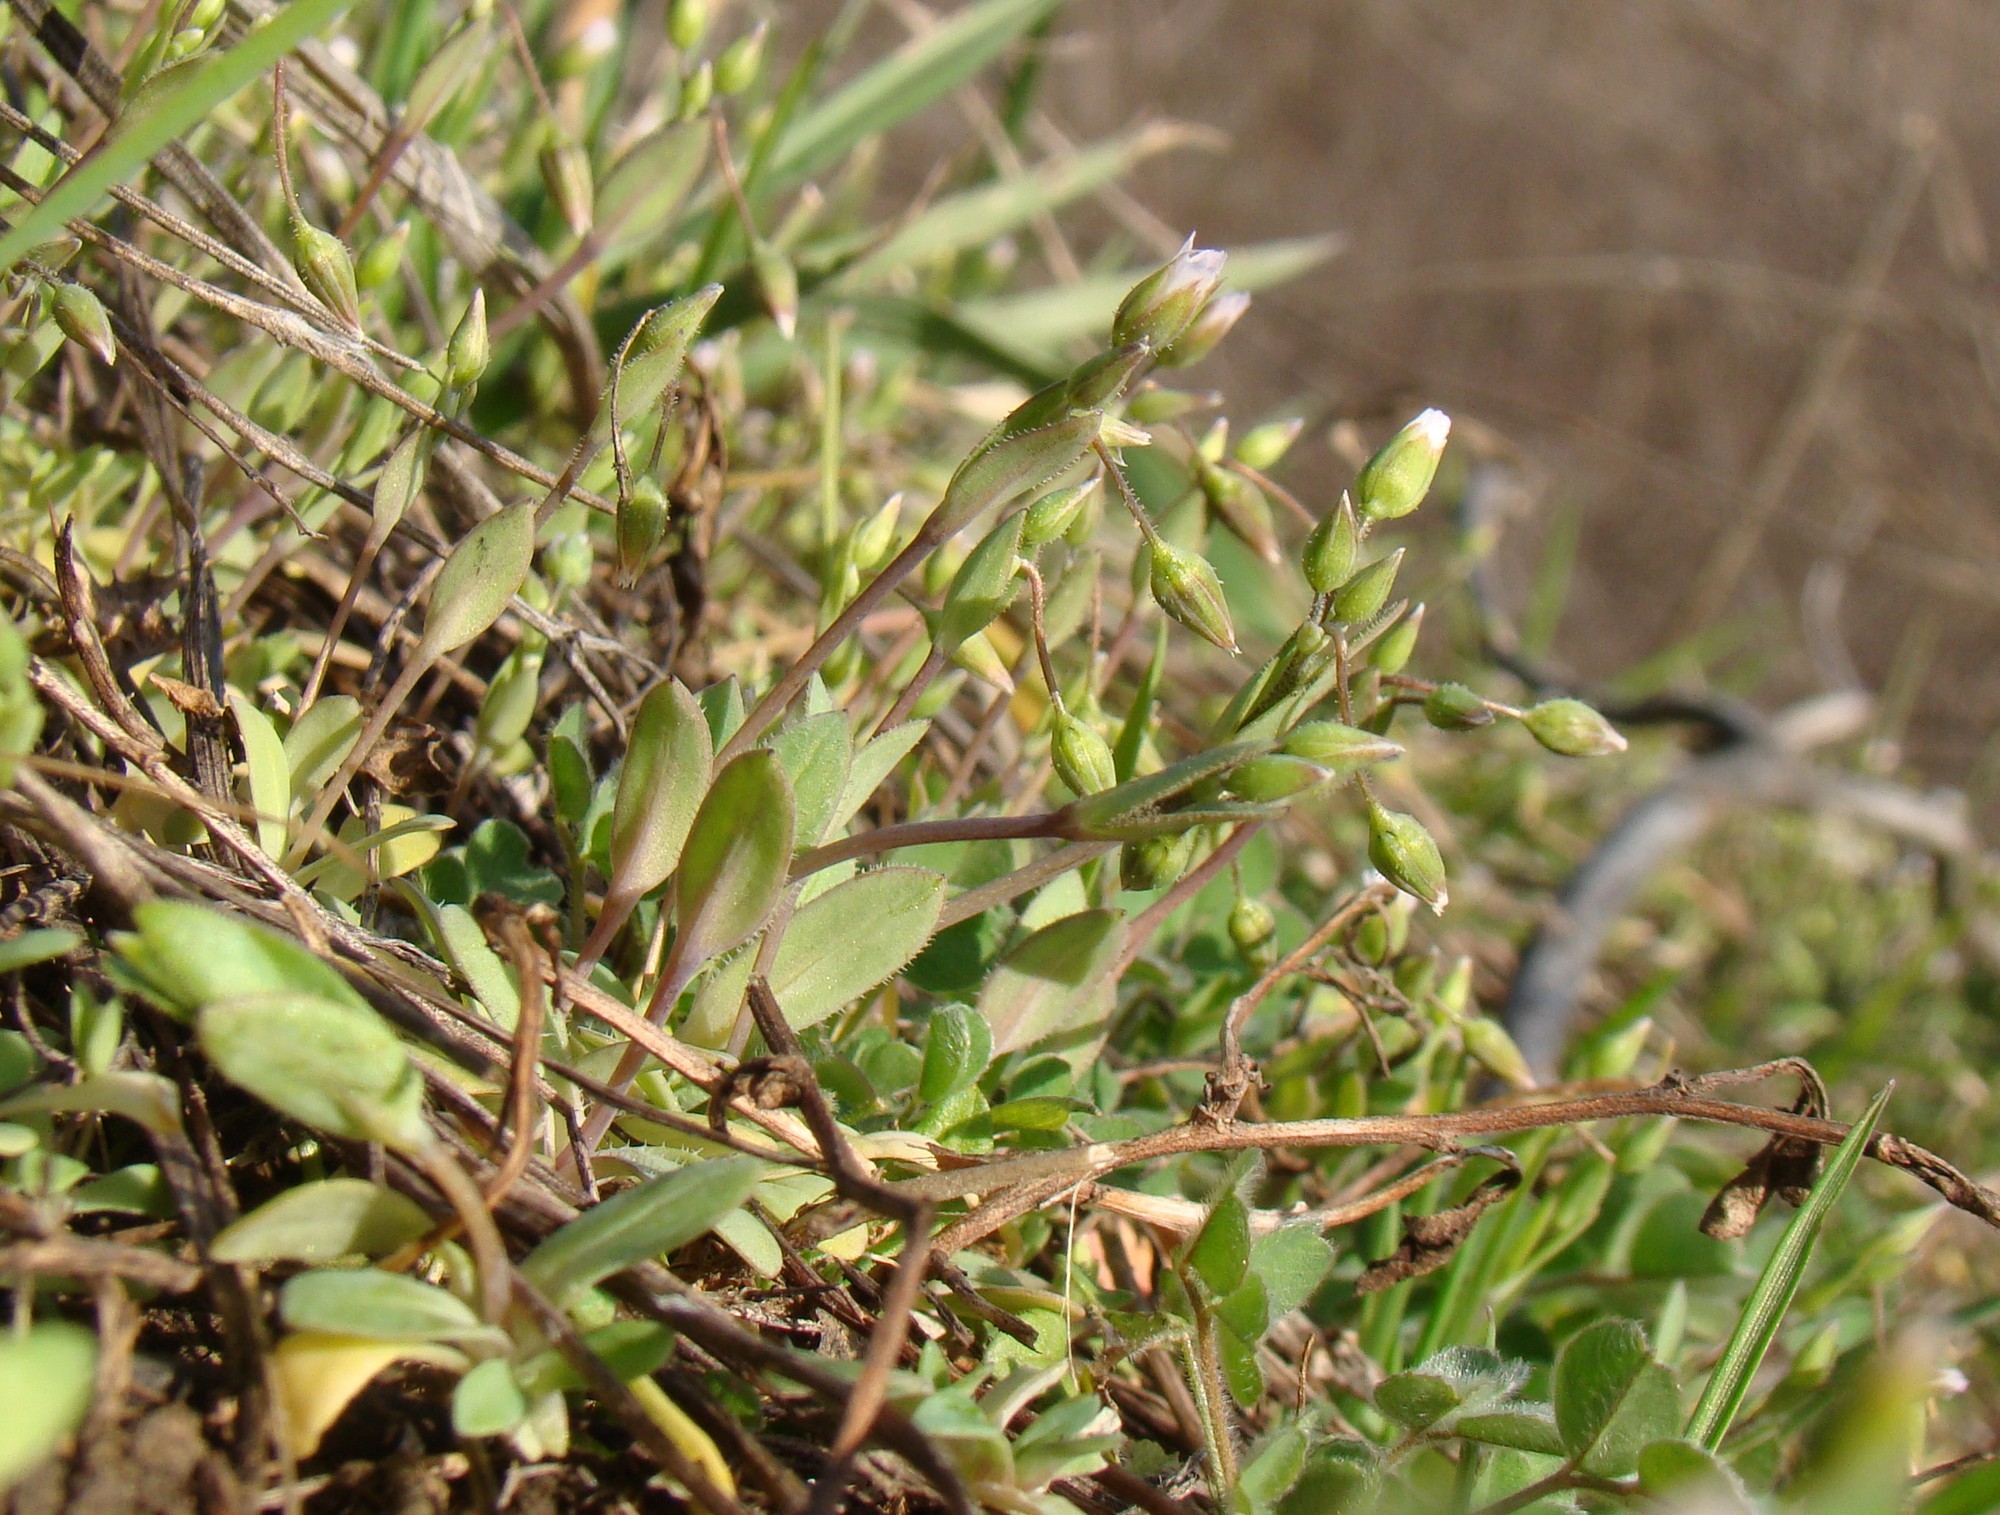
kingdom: Plantae
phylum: Tracheophyta
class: Magnoliopsida
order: Caryophyllales
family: Caryophyllaceae
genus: Holosteum
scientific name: Holosteum umbellatum
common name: Jagged chickweed
